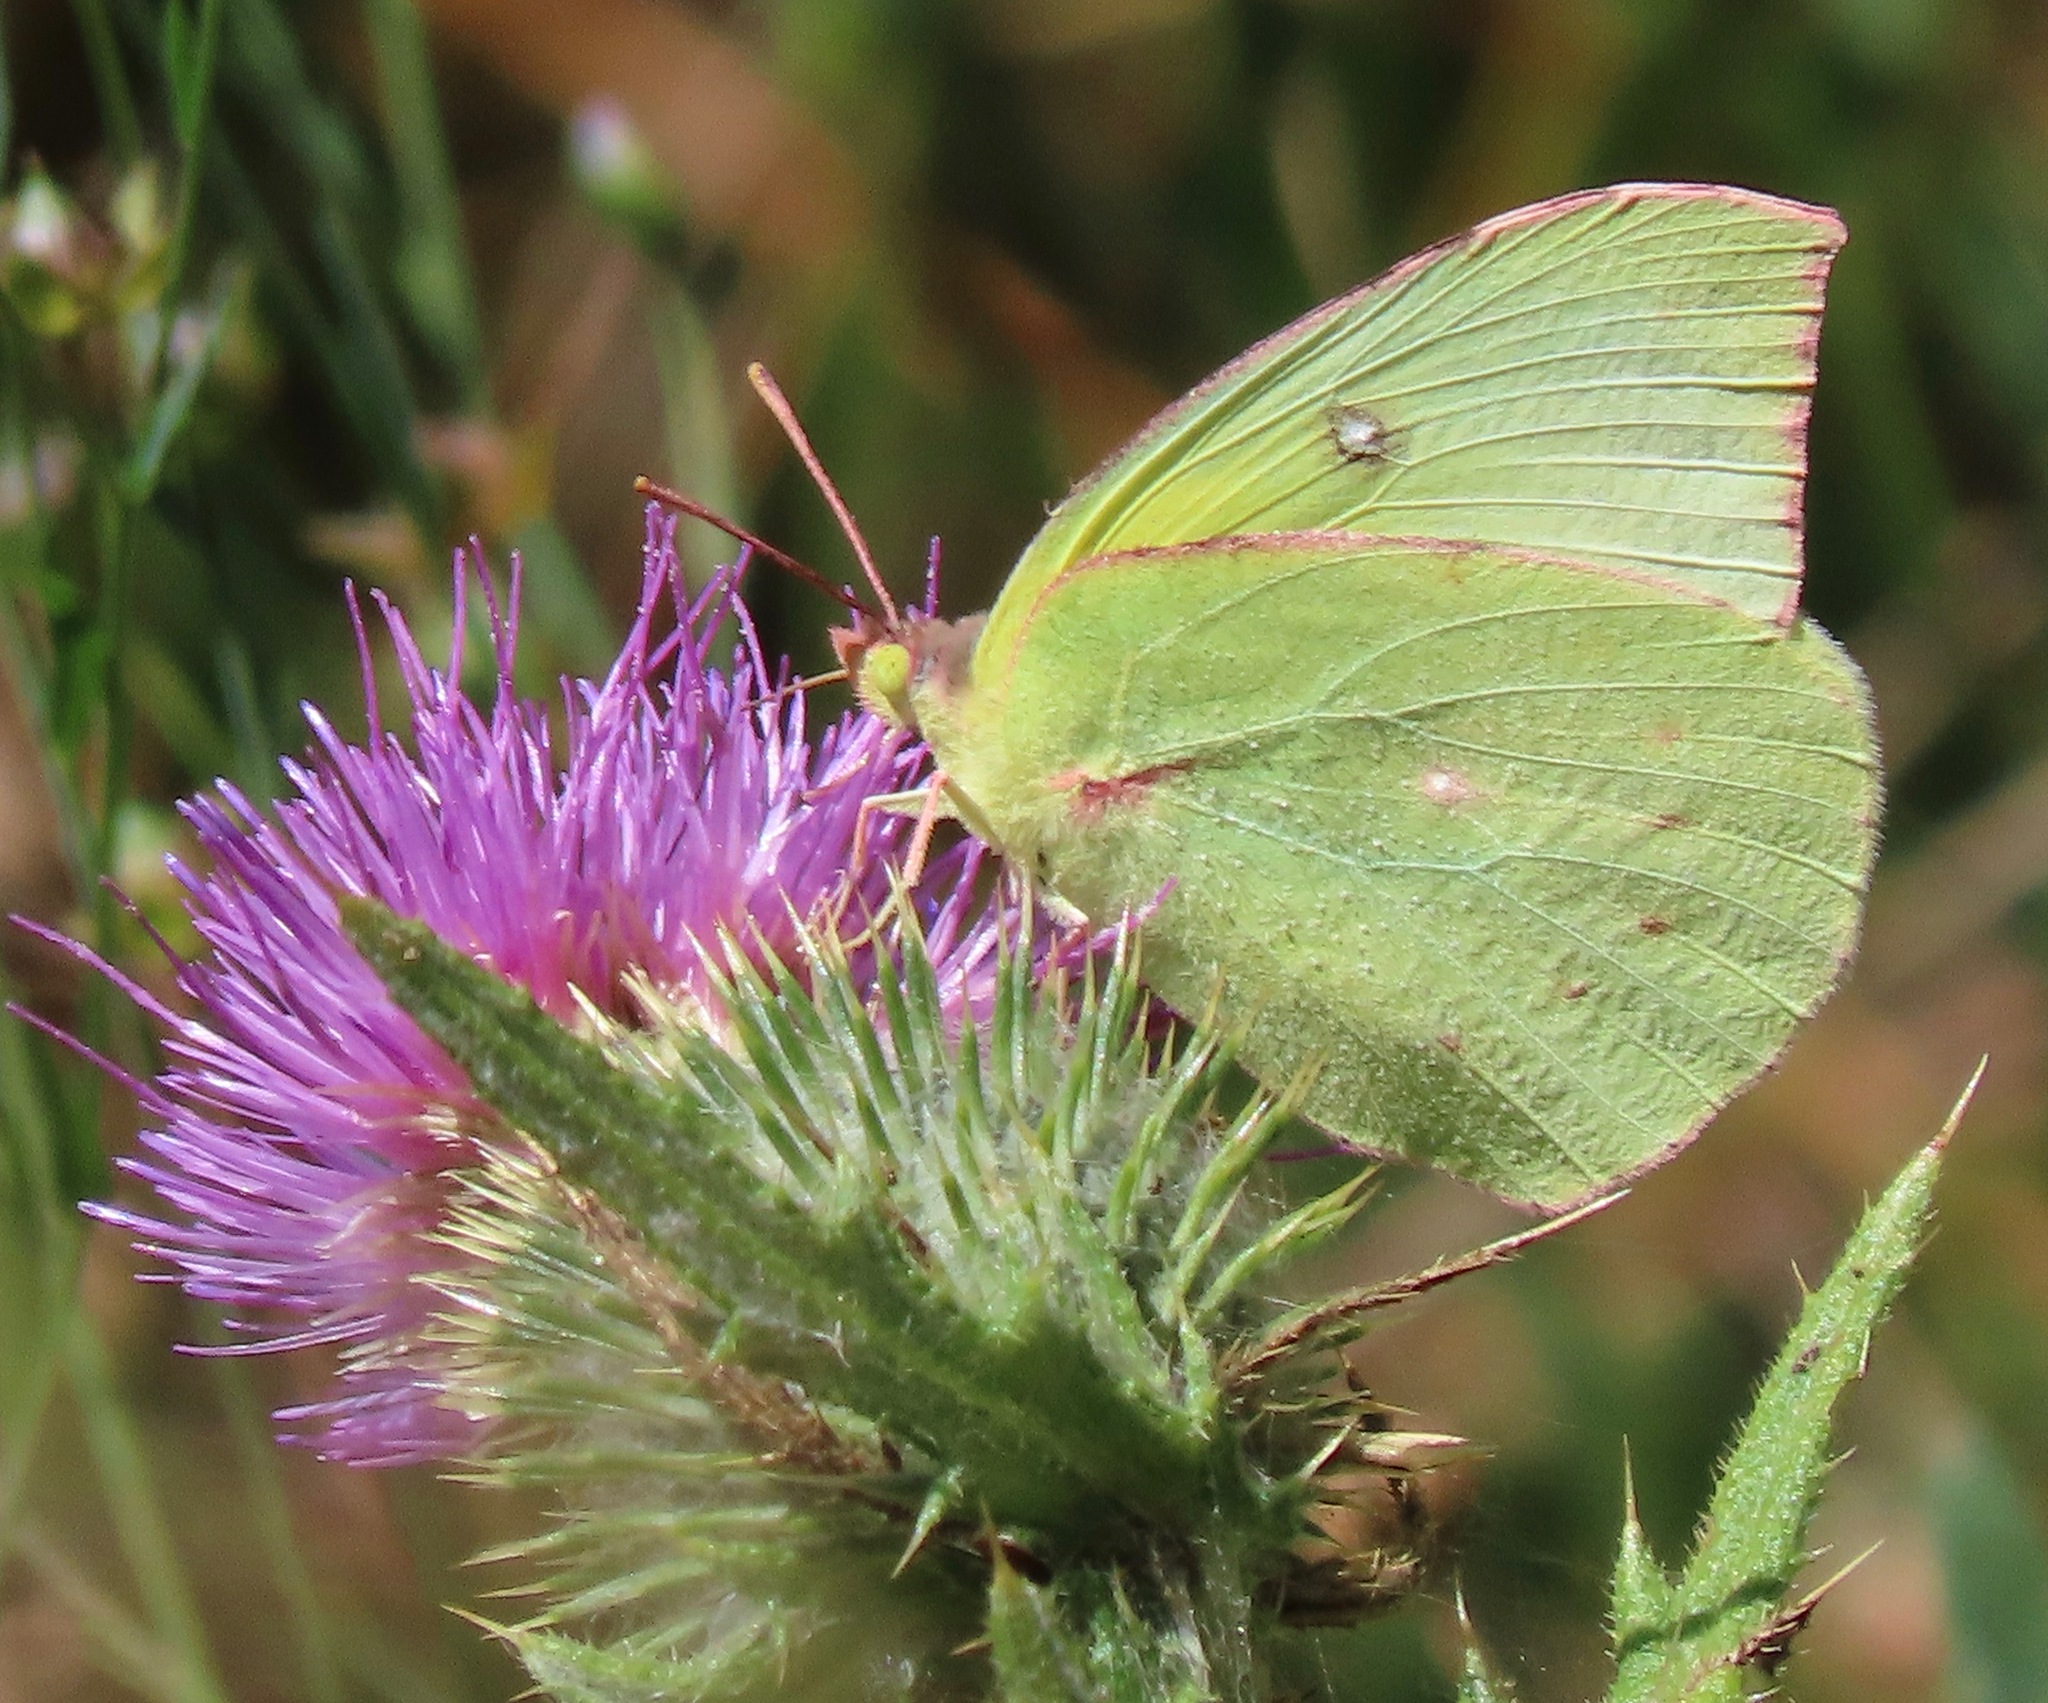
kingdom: Animalia
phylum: Arthropoda
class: Insecta
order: Lepidoptera
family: Pieridae
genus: Zerene
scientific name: Zerene eurydice
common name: California dogface
